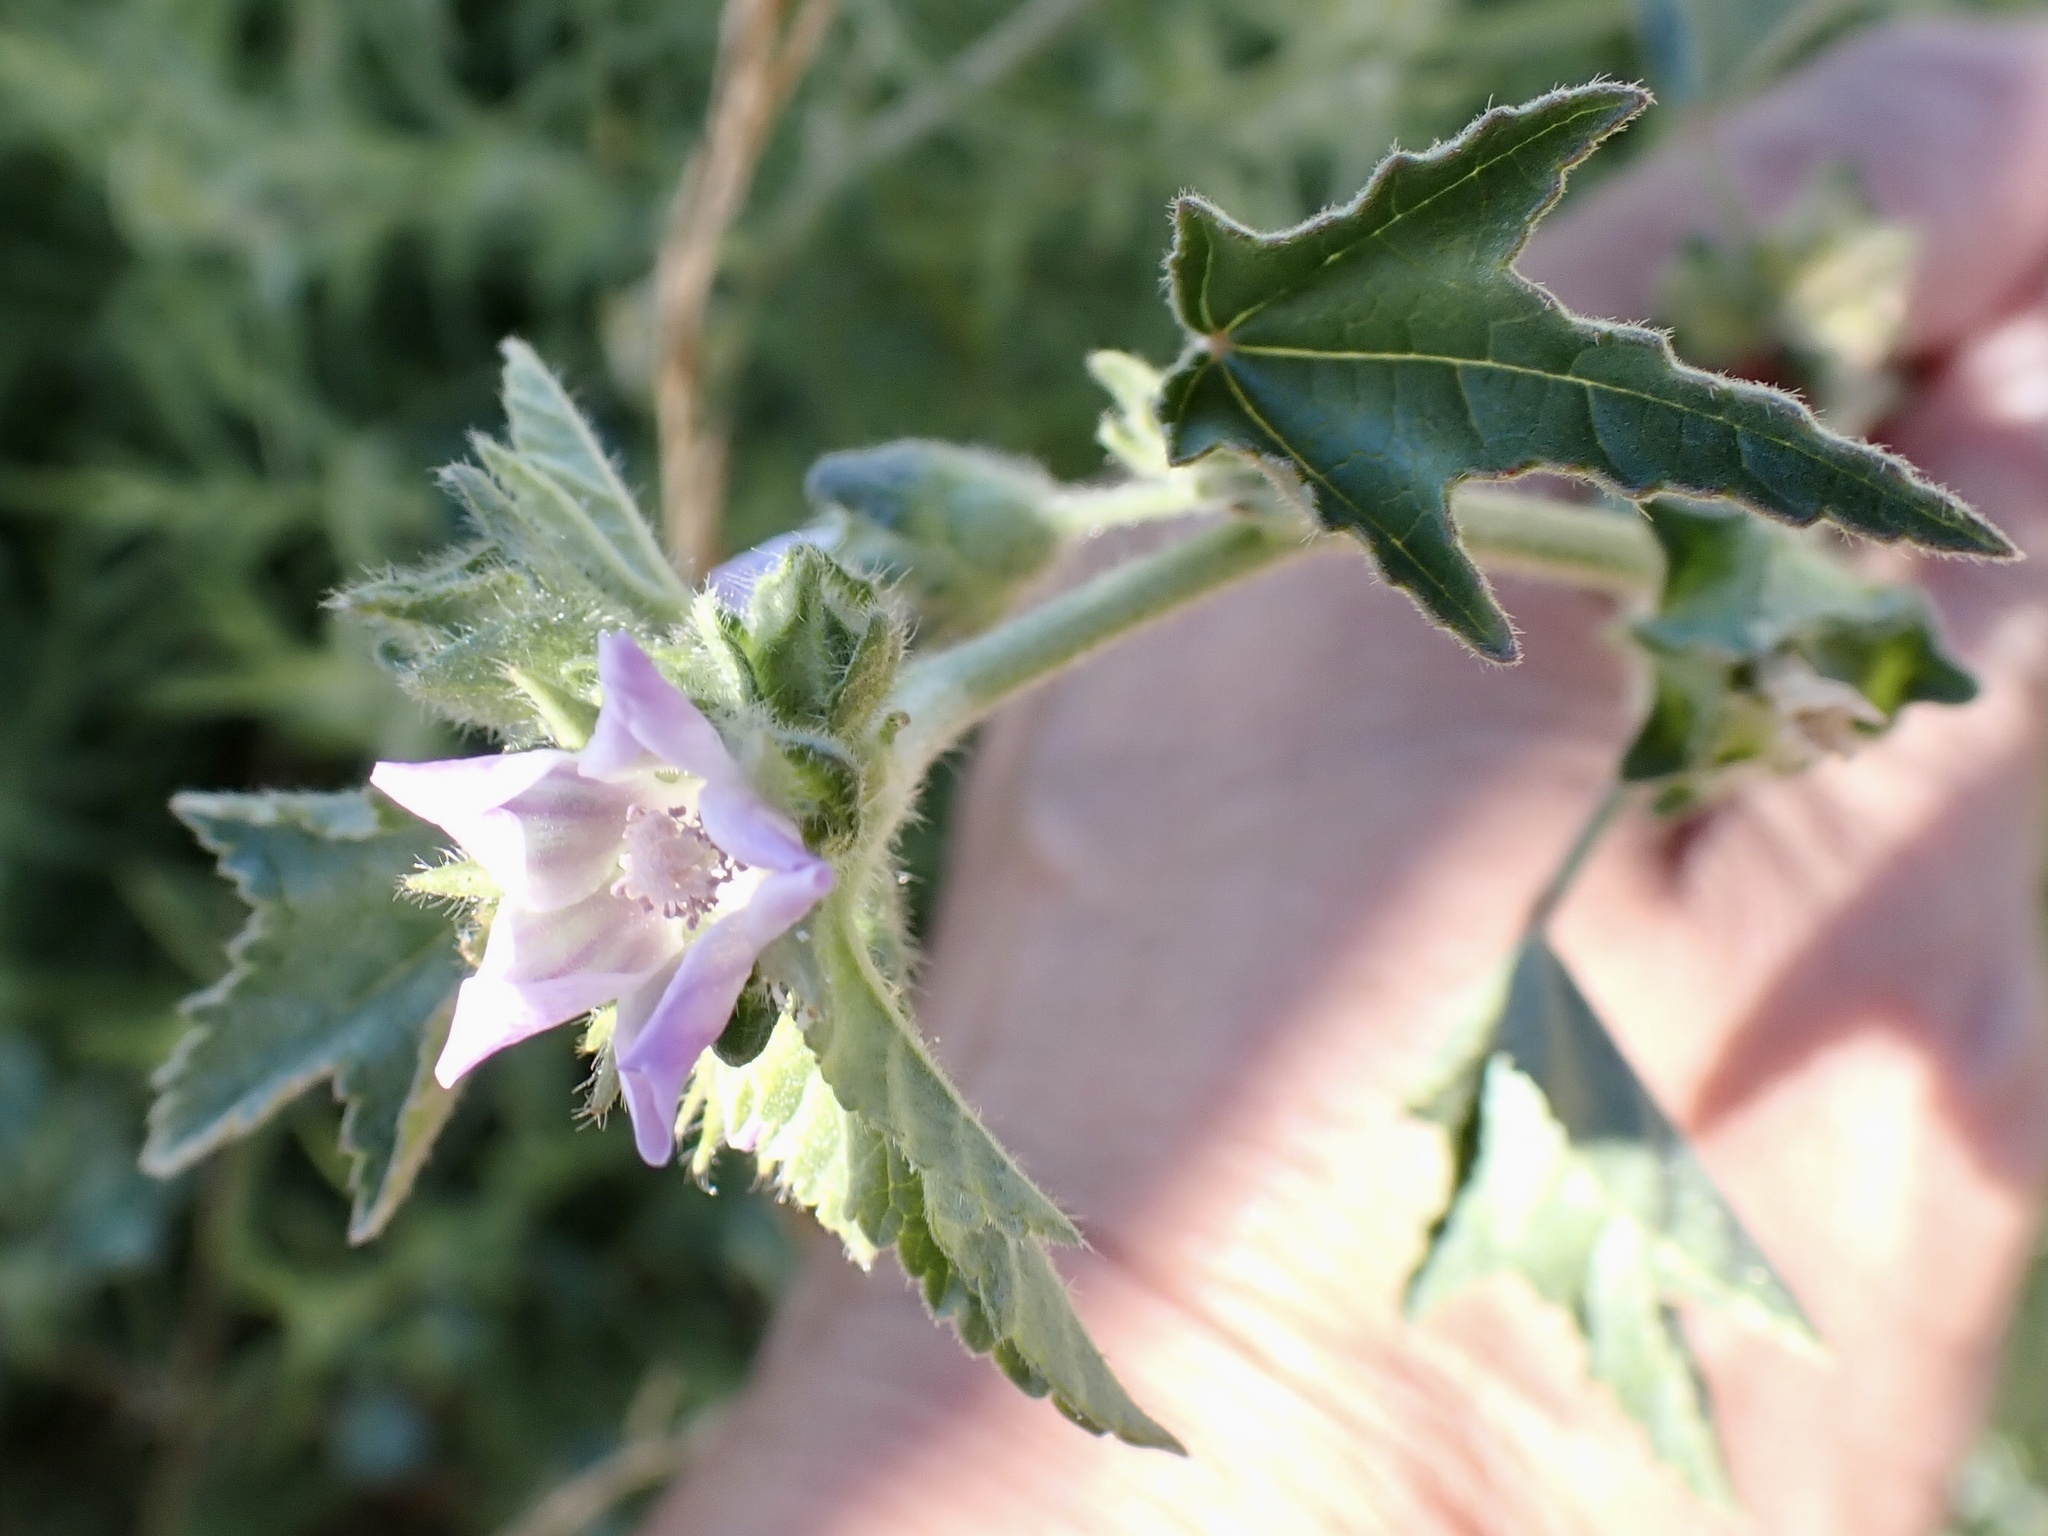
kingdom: Plantae
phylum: Tracheophyta
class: Magnoliopsida
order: Malvales
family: Malvaceae
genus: Malva
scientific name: Malva multiflora
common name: Cheeseweed
